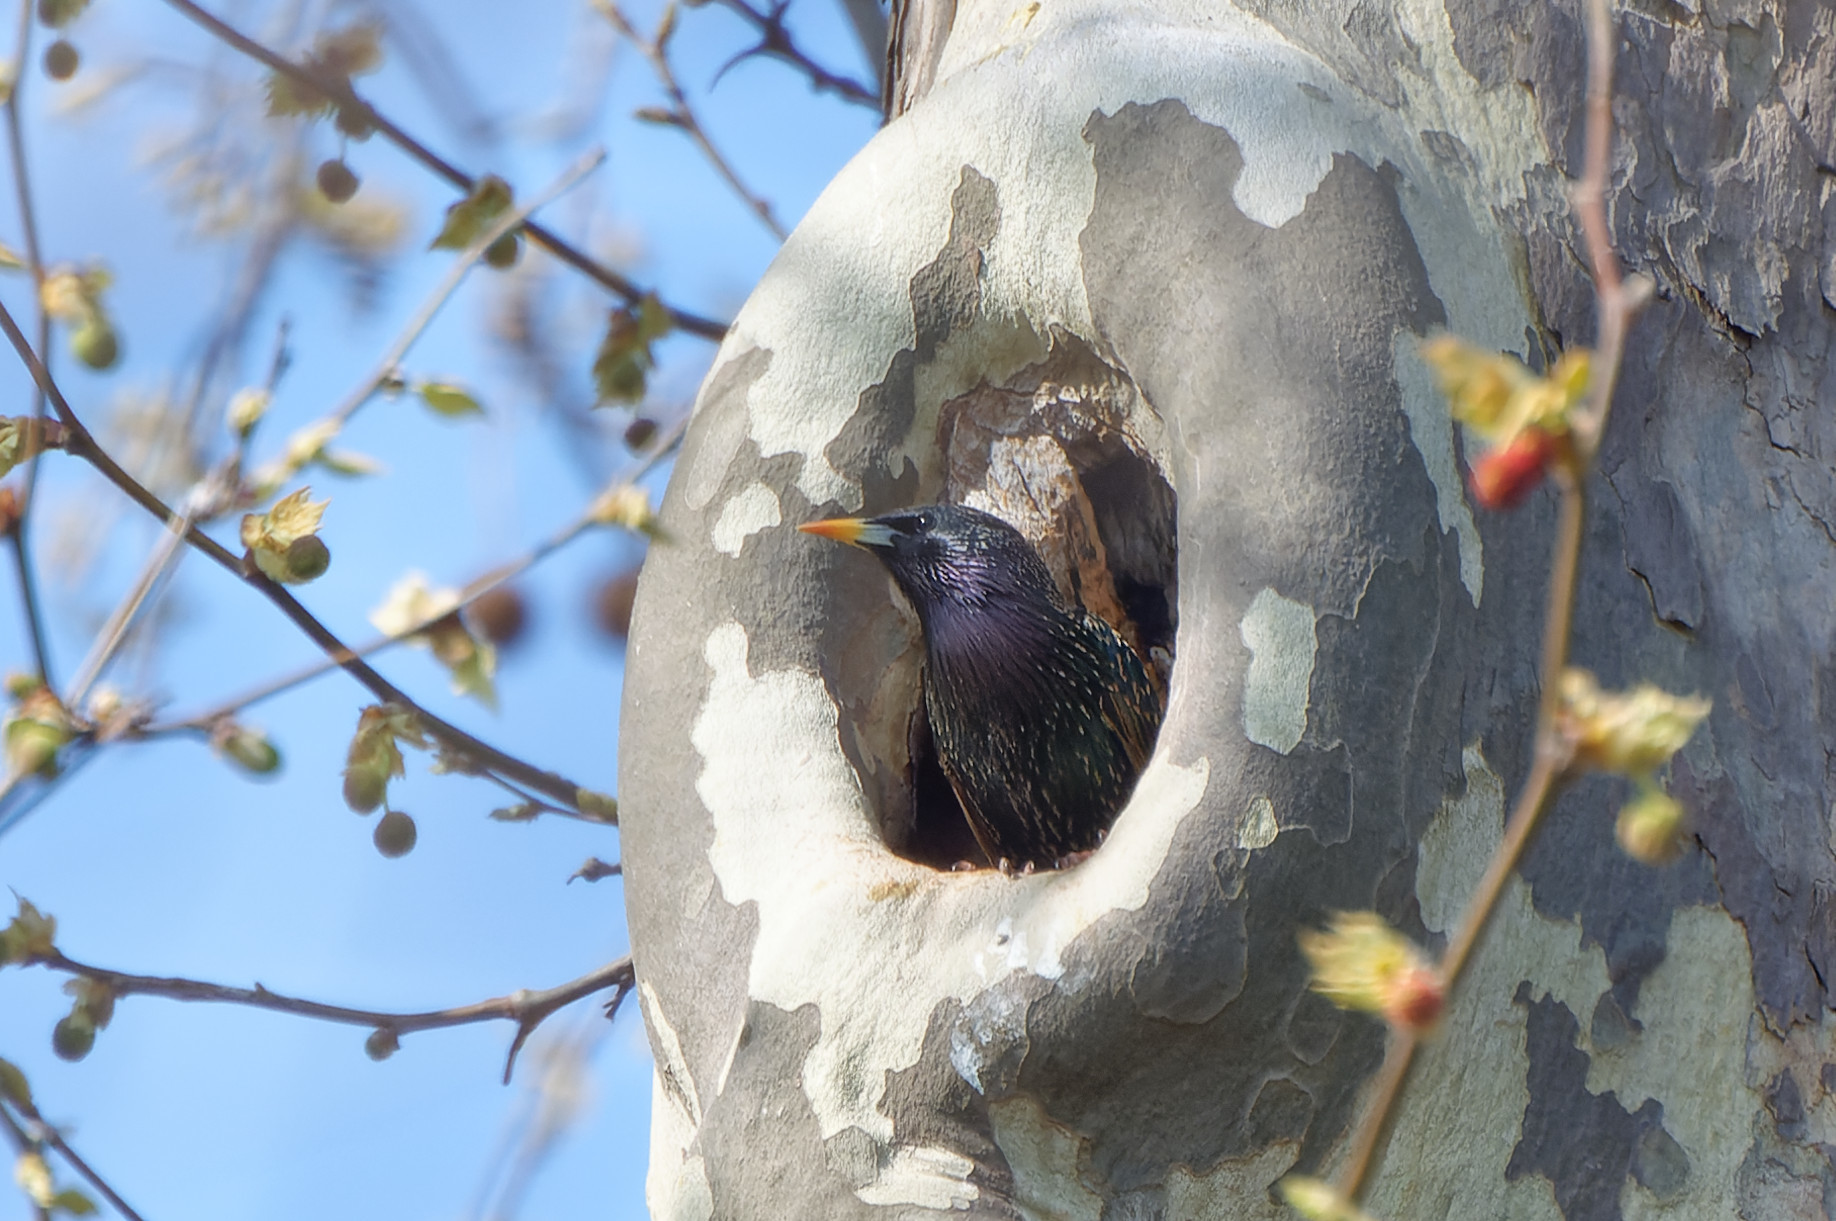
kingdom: Animalia
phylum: Chordata
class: Aves
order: Passeriformes
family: Sturnidae
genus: Sturnus
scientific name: Sturnus vulgaris
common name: Common starling
